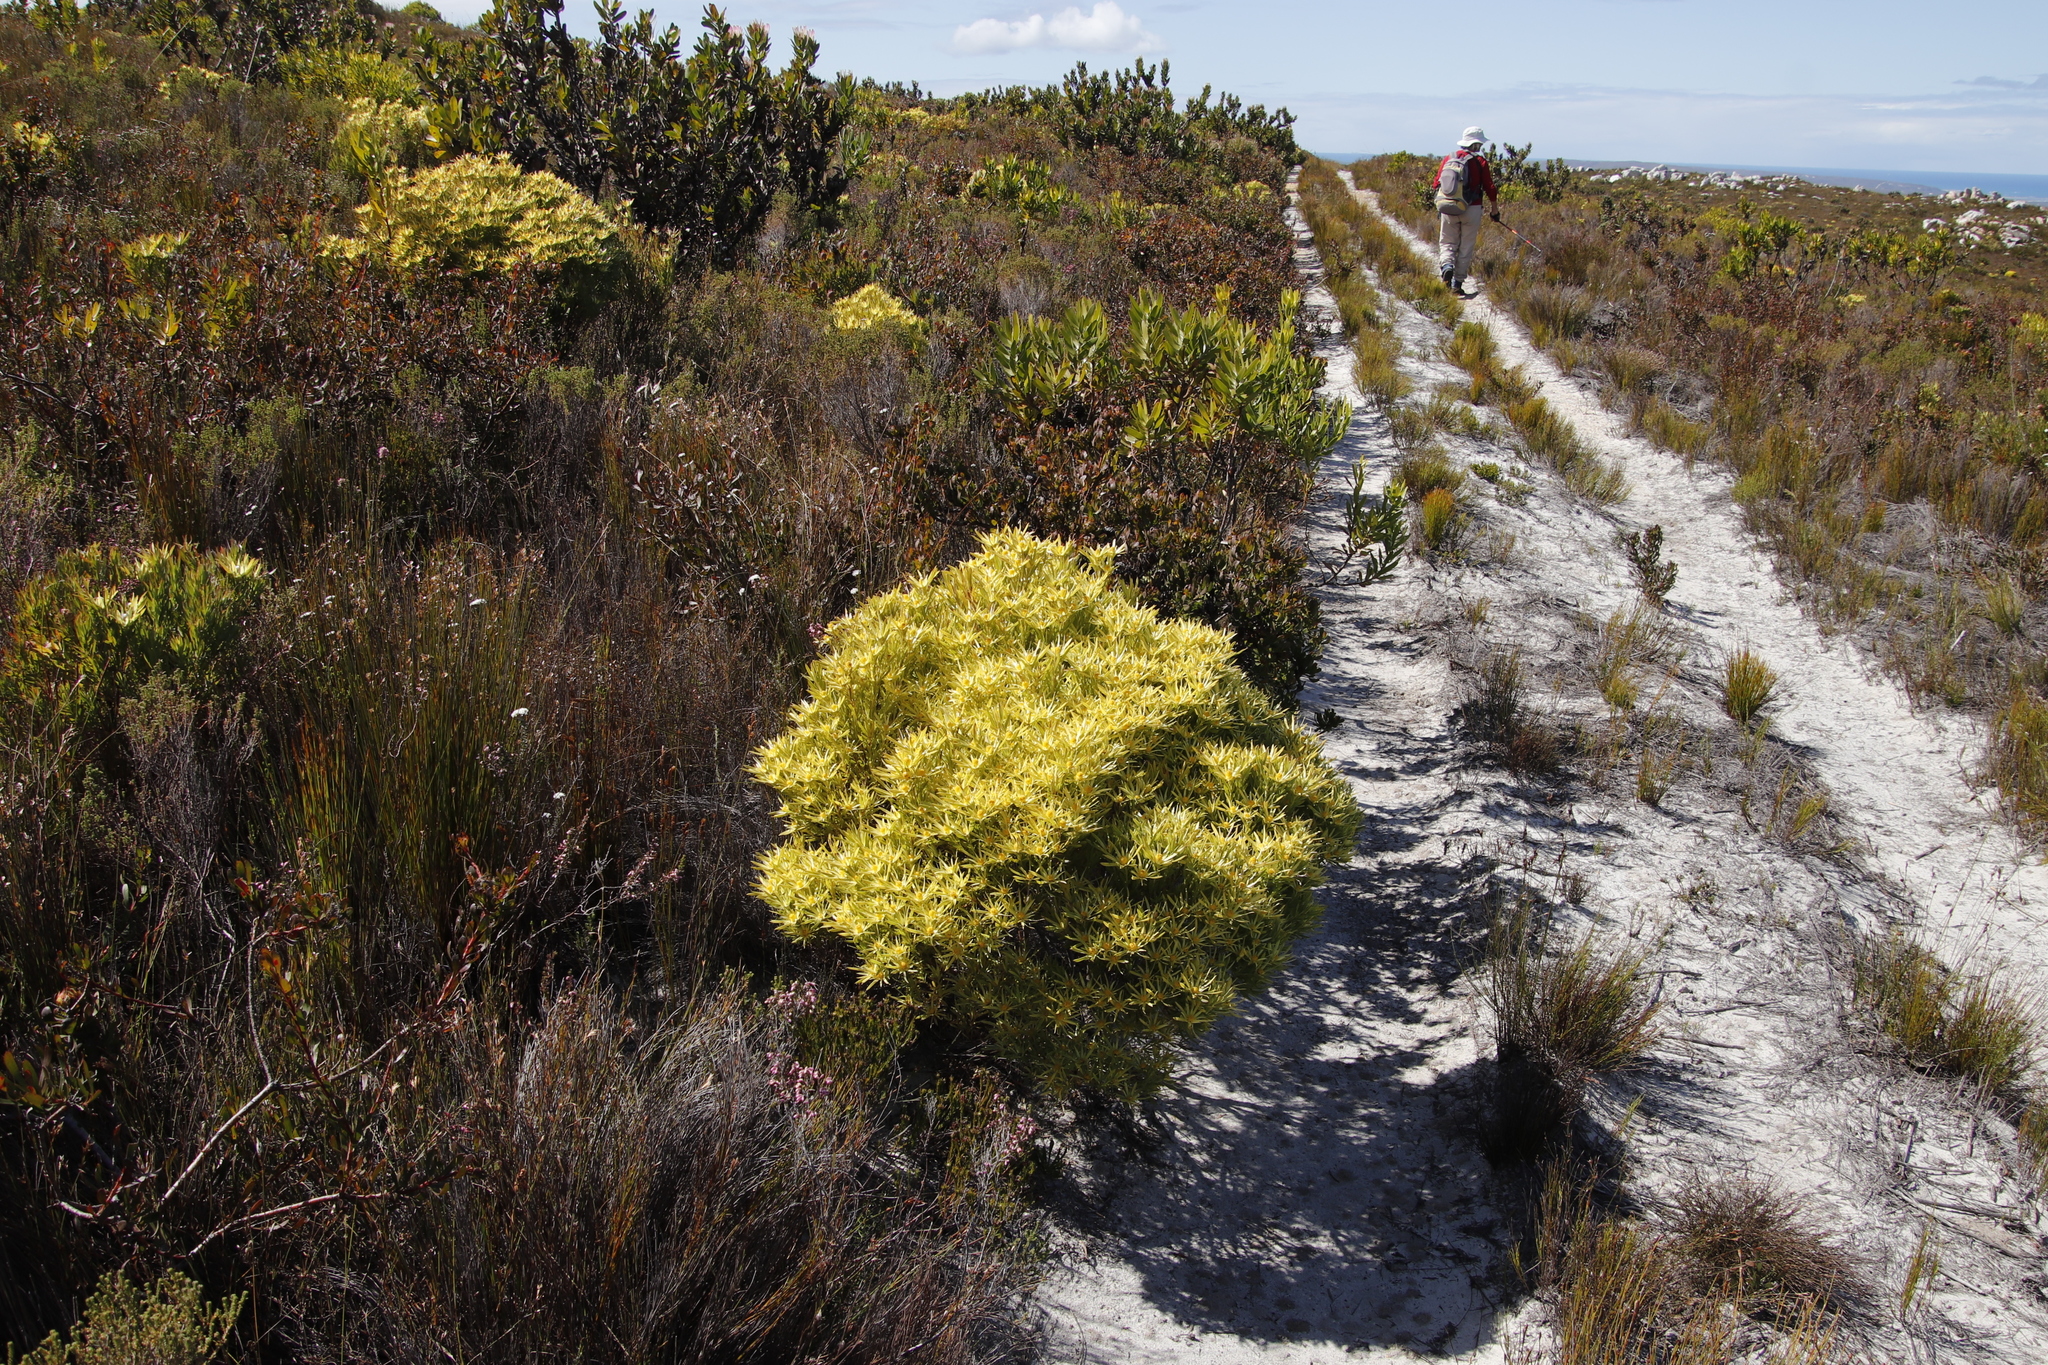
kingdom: Plantae
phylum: Tracheophyta
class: Magnoliopsida
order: Proteales
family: Proteaceae
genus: Leucadendron
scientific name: Leucadendron xanthoconus
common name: Sickle-leaf conebush
